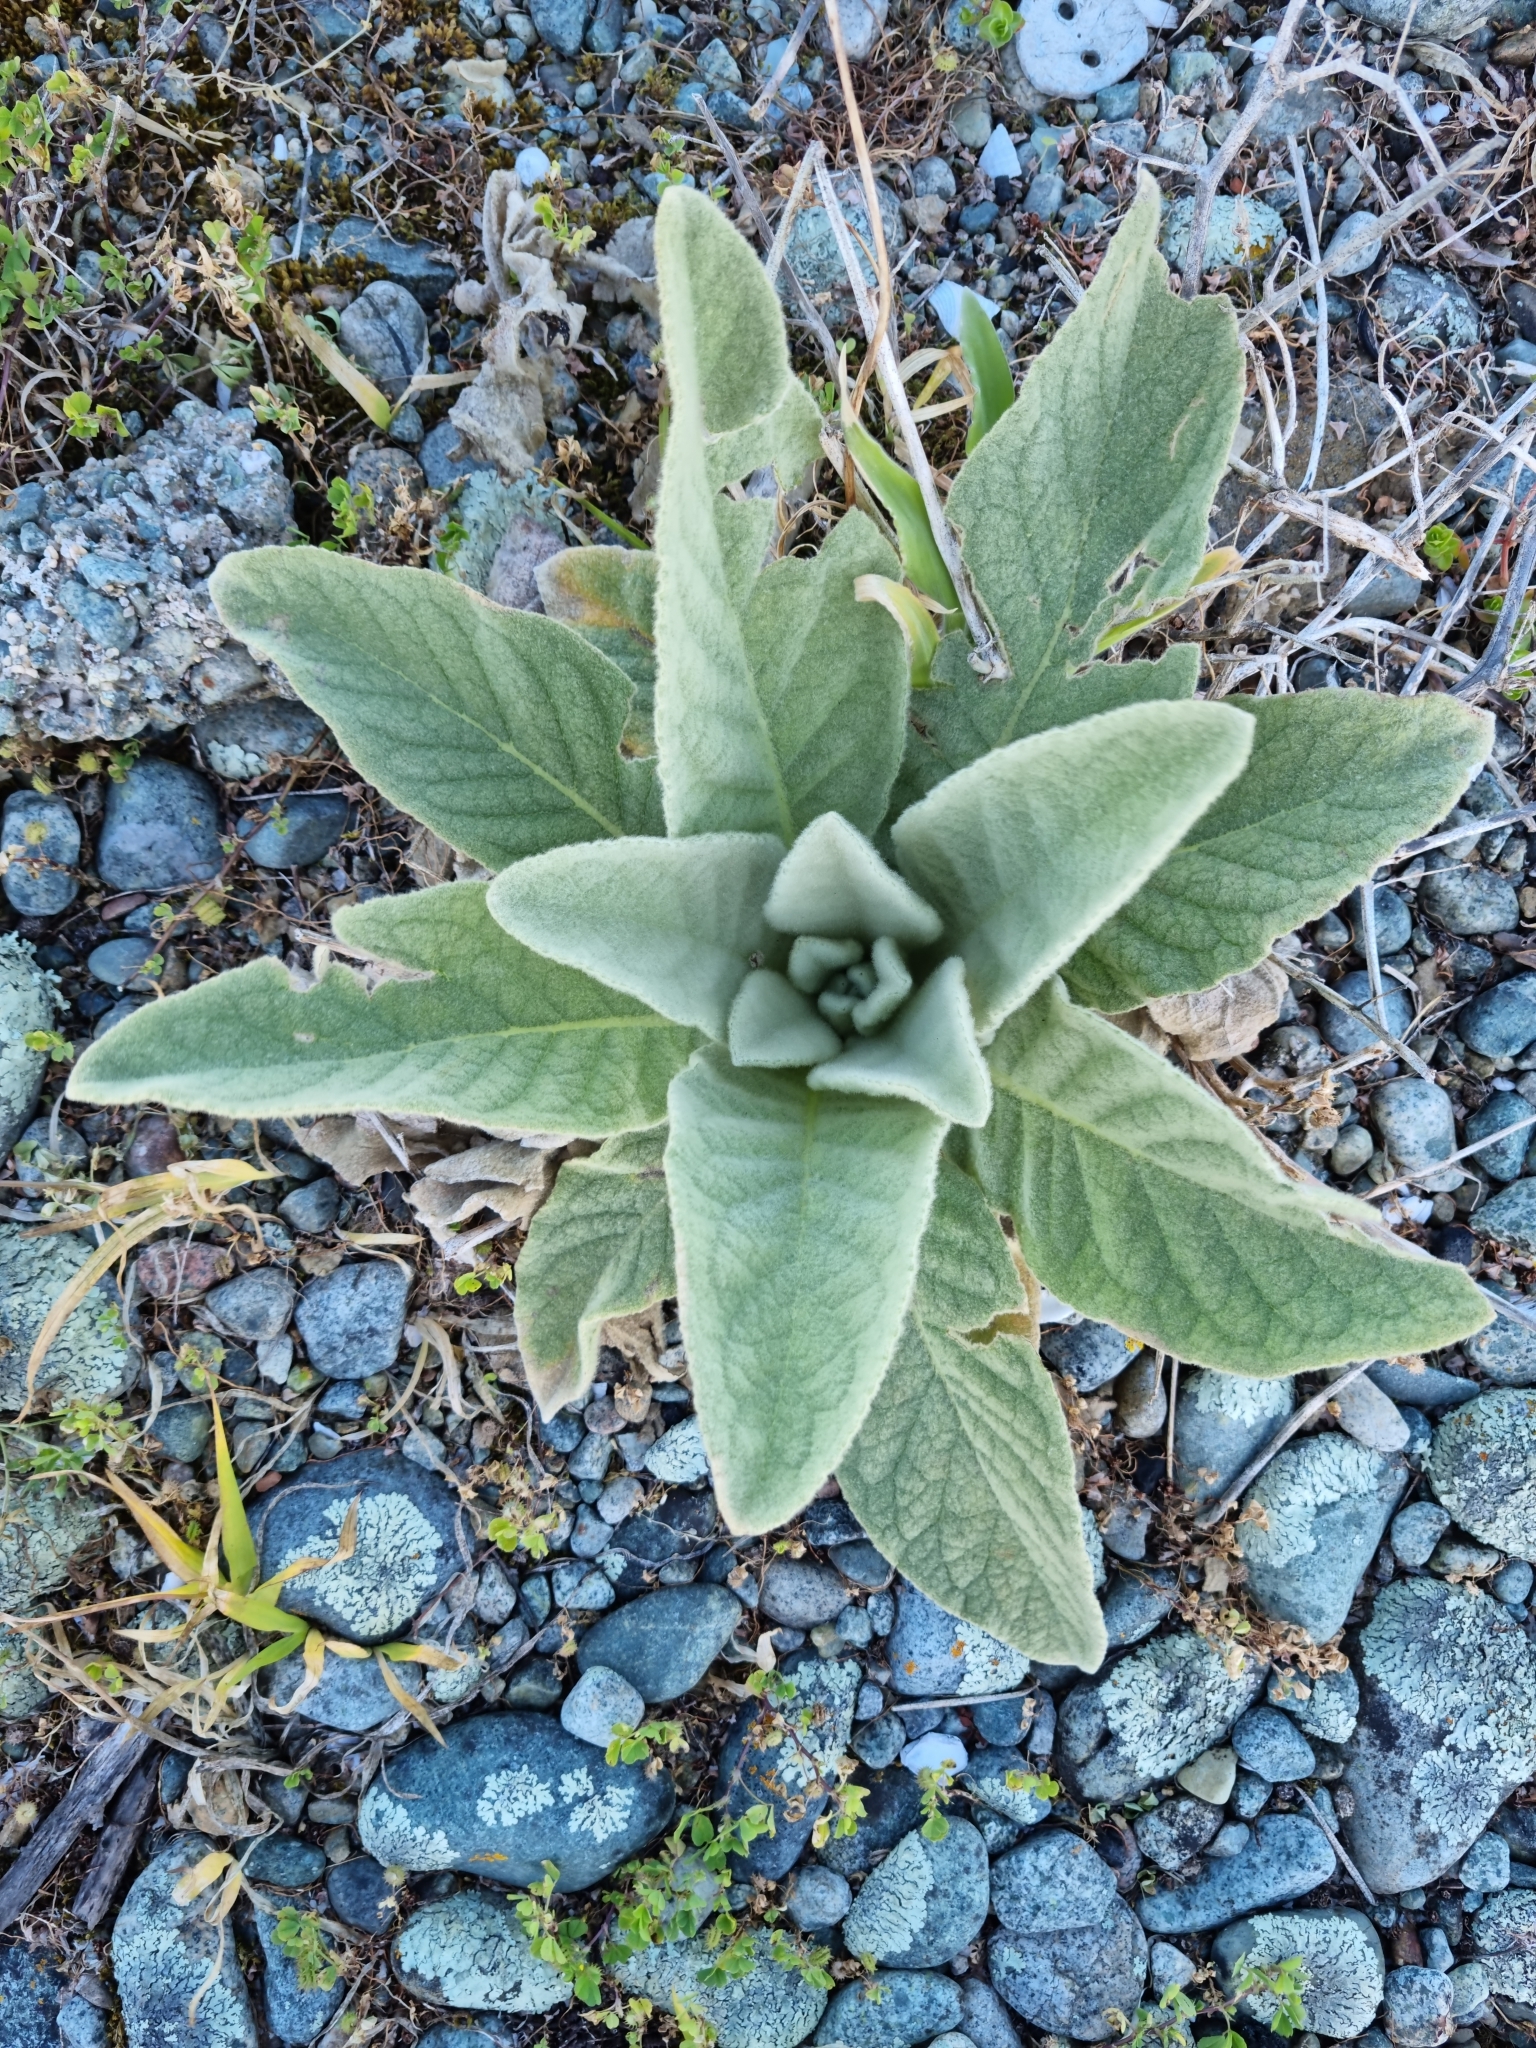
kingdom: Plantae
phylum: Tracheophyta
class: Magnoliopsida
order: Lamiales
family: Scrophulariaceae
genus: Verbascum
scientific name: Verbascum thapsus
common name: Common mullein
